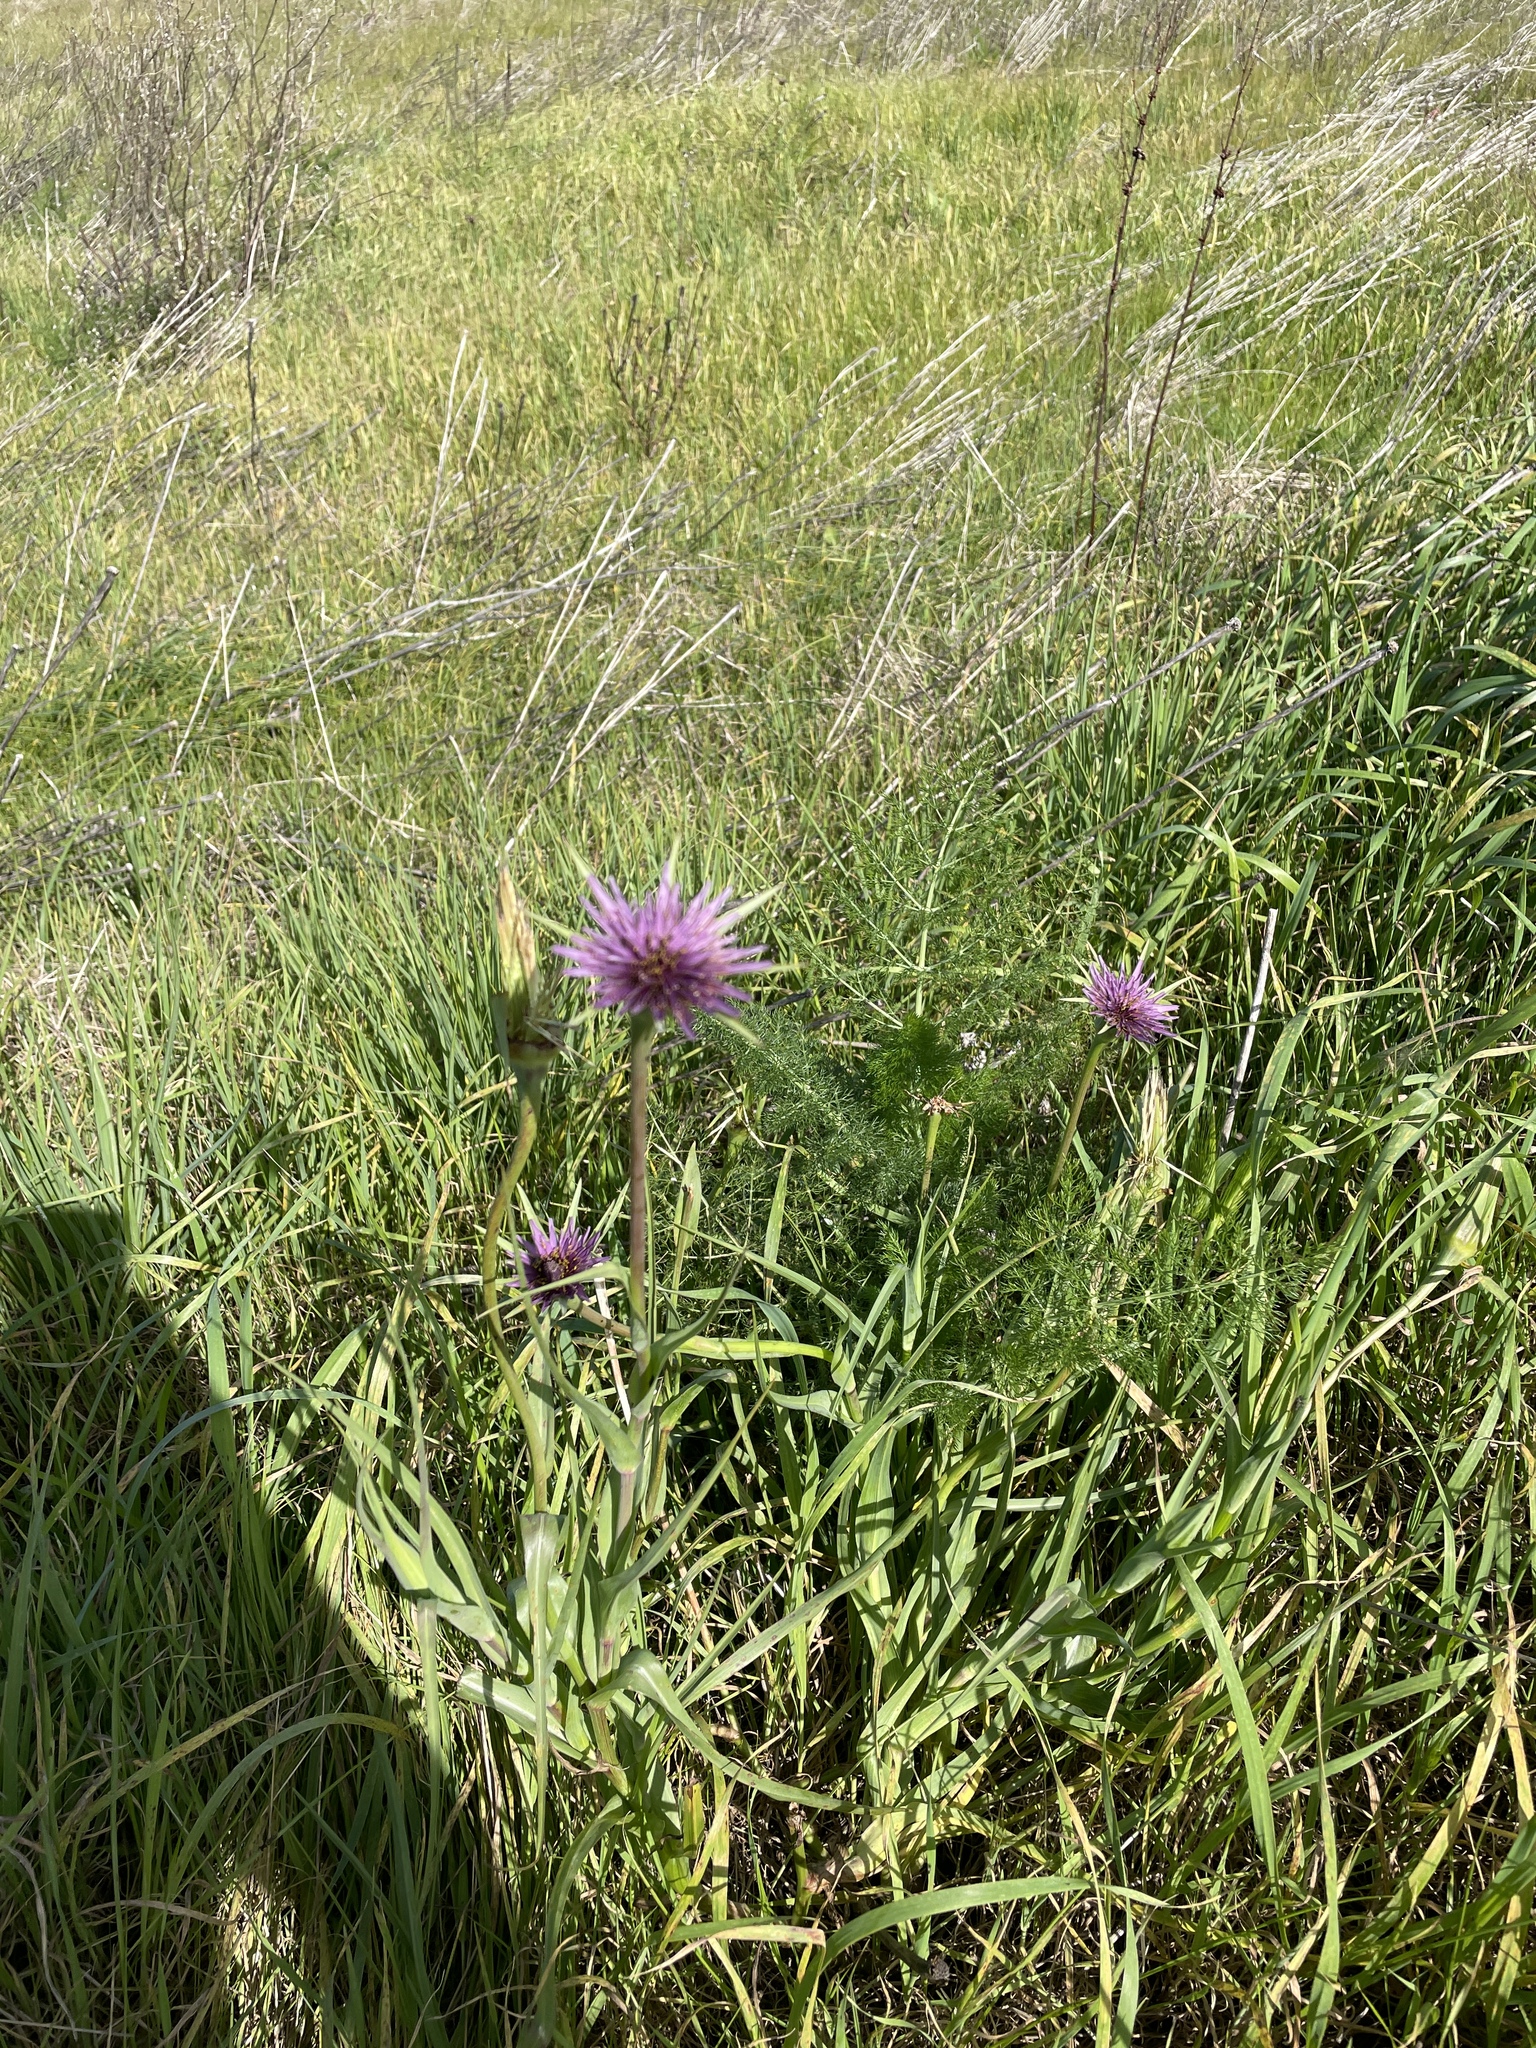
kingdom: Plantae
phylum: Tracheophyta
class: Magnoliopsida
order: Asterales
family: Asteraceae
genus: Tragopogon
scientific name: Tragopogon porrifolius
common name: Salsify
